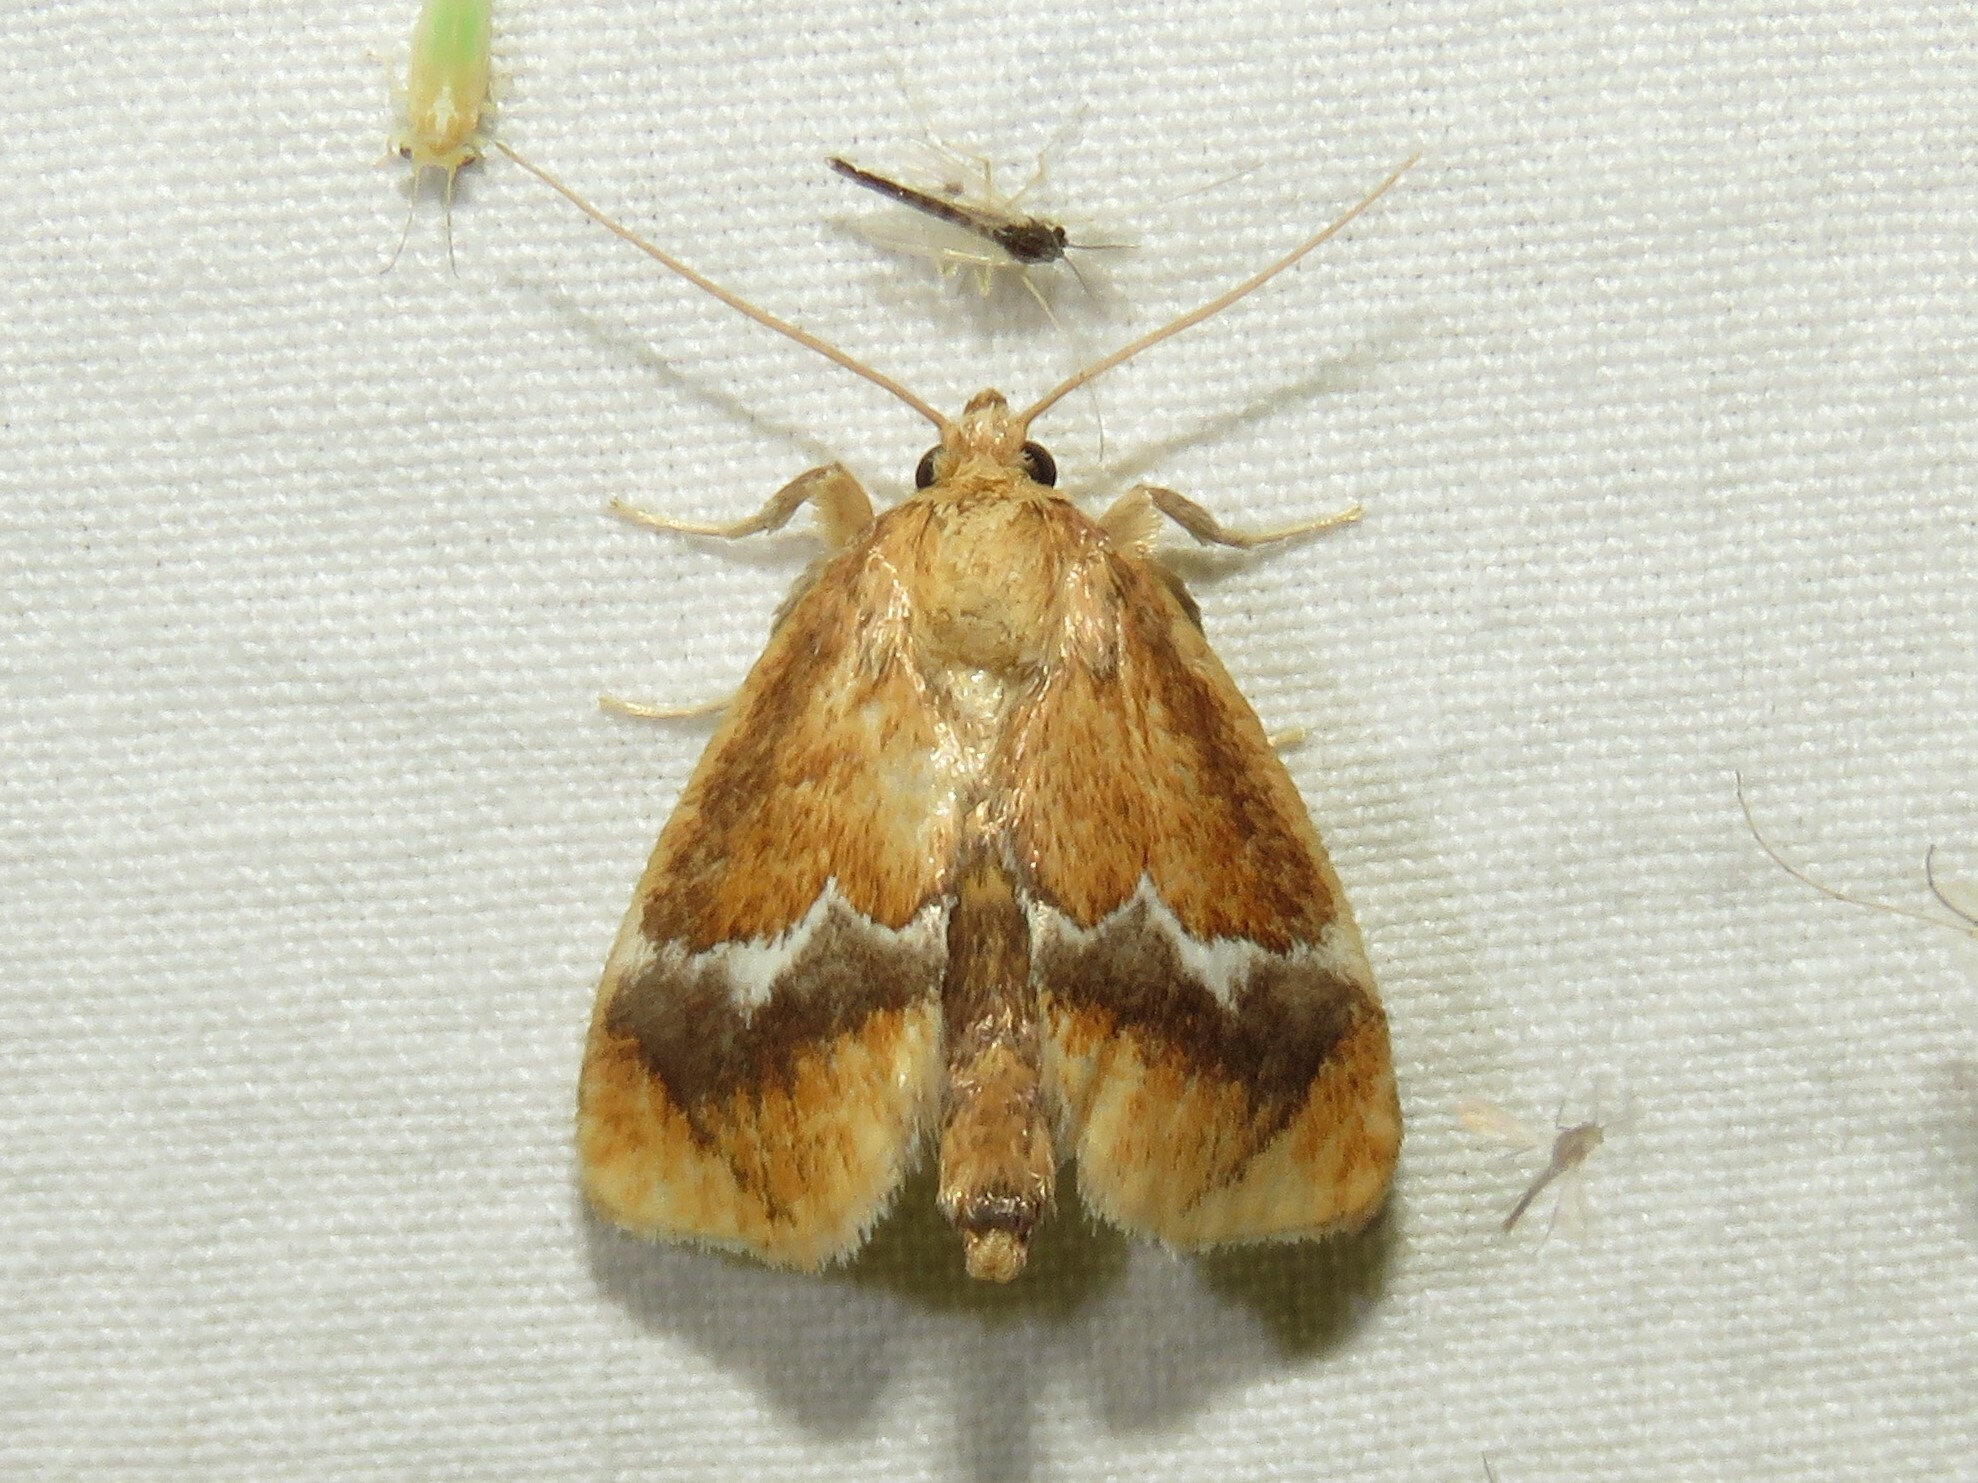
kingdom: Animalia
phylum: Arthropoda
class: Insecta
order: Lepidoptera
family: Limacodidae
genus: Lithacodes
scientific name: Lithacodes fasciola
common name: Yellow-shouldered slug moth
